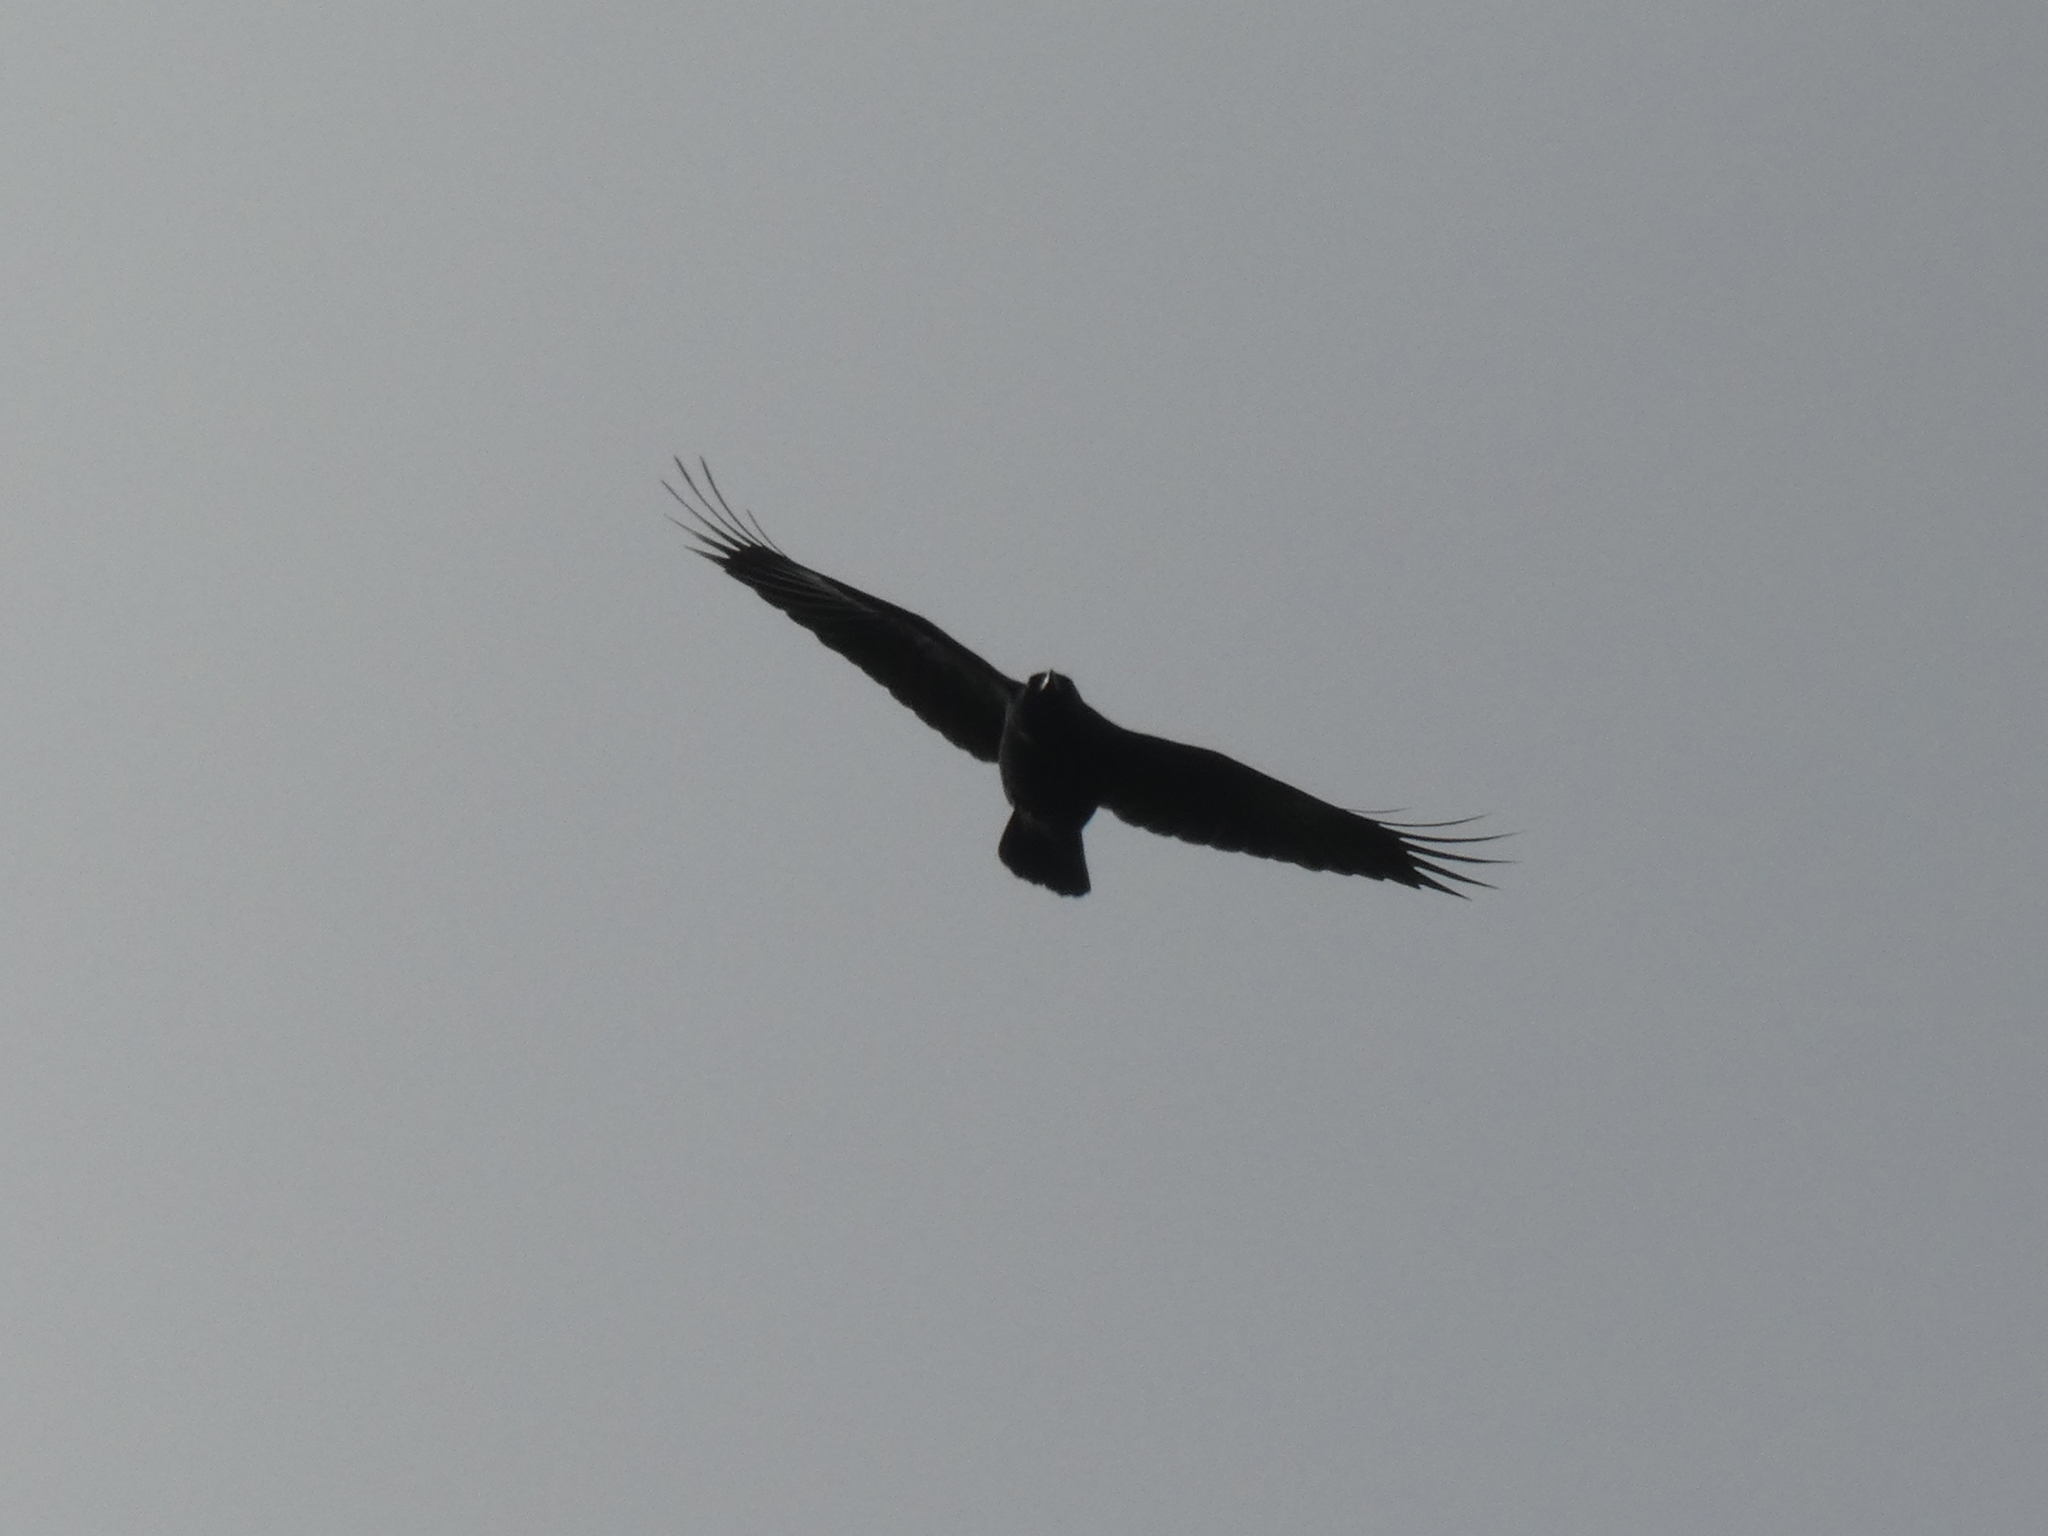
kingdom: Animalia
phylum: Chordata
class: Aves
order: Passeriformes
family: Corvidae
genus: Corvus
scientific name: Corvus brachyrhynchos
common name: American crow
